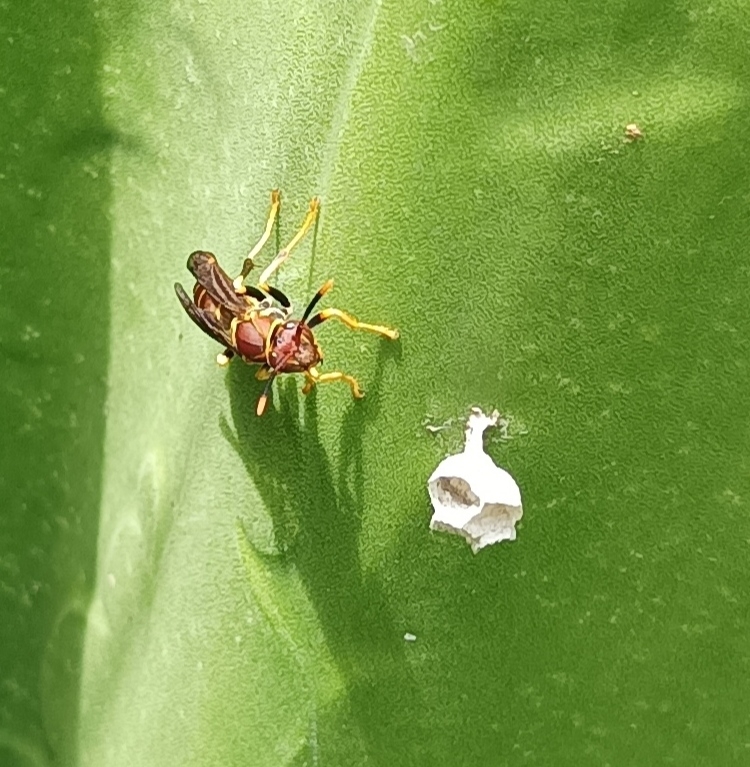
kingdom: Animalia
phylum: Arthropoda
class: Insecta
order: Hymenoptera
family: Eumenidae
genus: Polistes
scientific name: Polistes instabilis
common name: Unstable paper wasp
